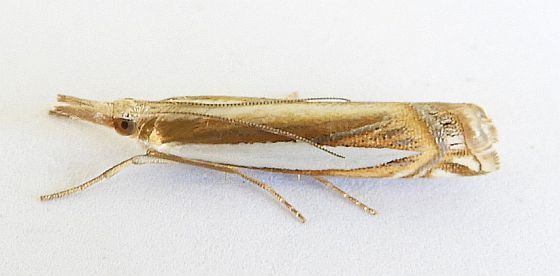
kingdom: Animalia
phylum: Arthropoda
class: Insecta
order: Lepidoptera
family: Crambidae
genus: Crambus
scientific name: Crambus cyrilellus
